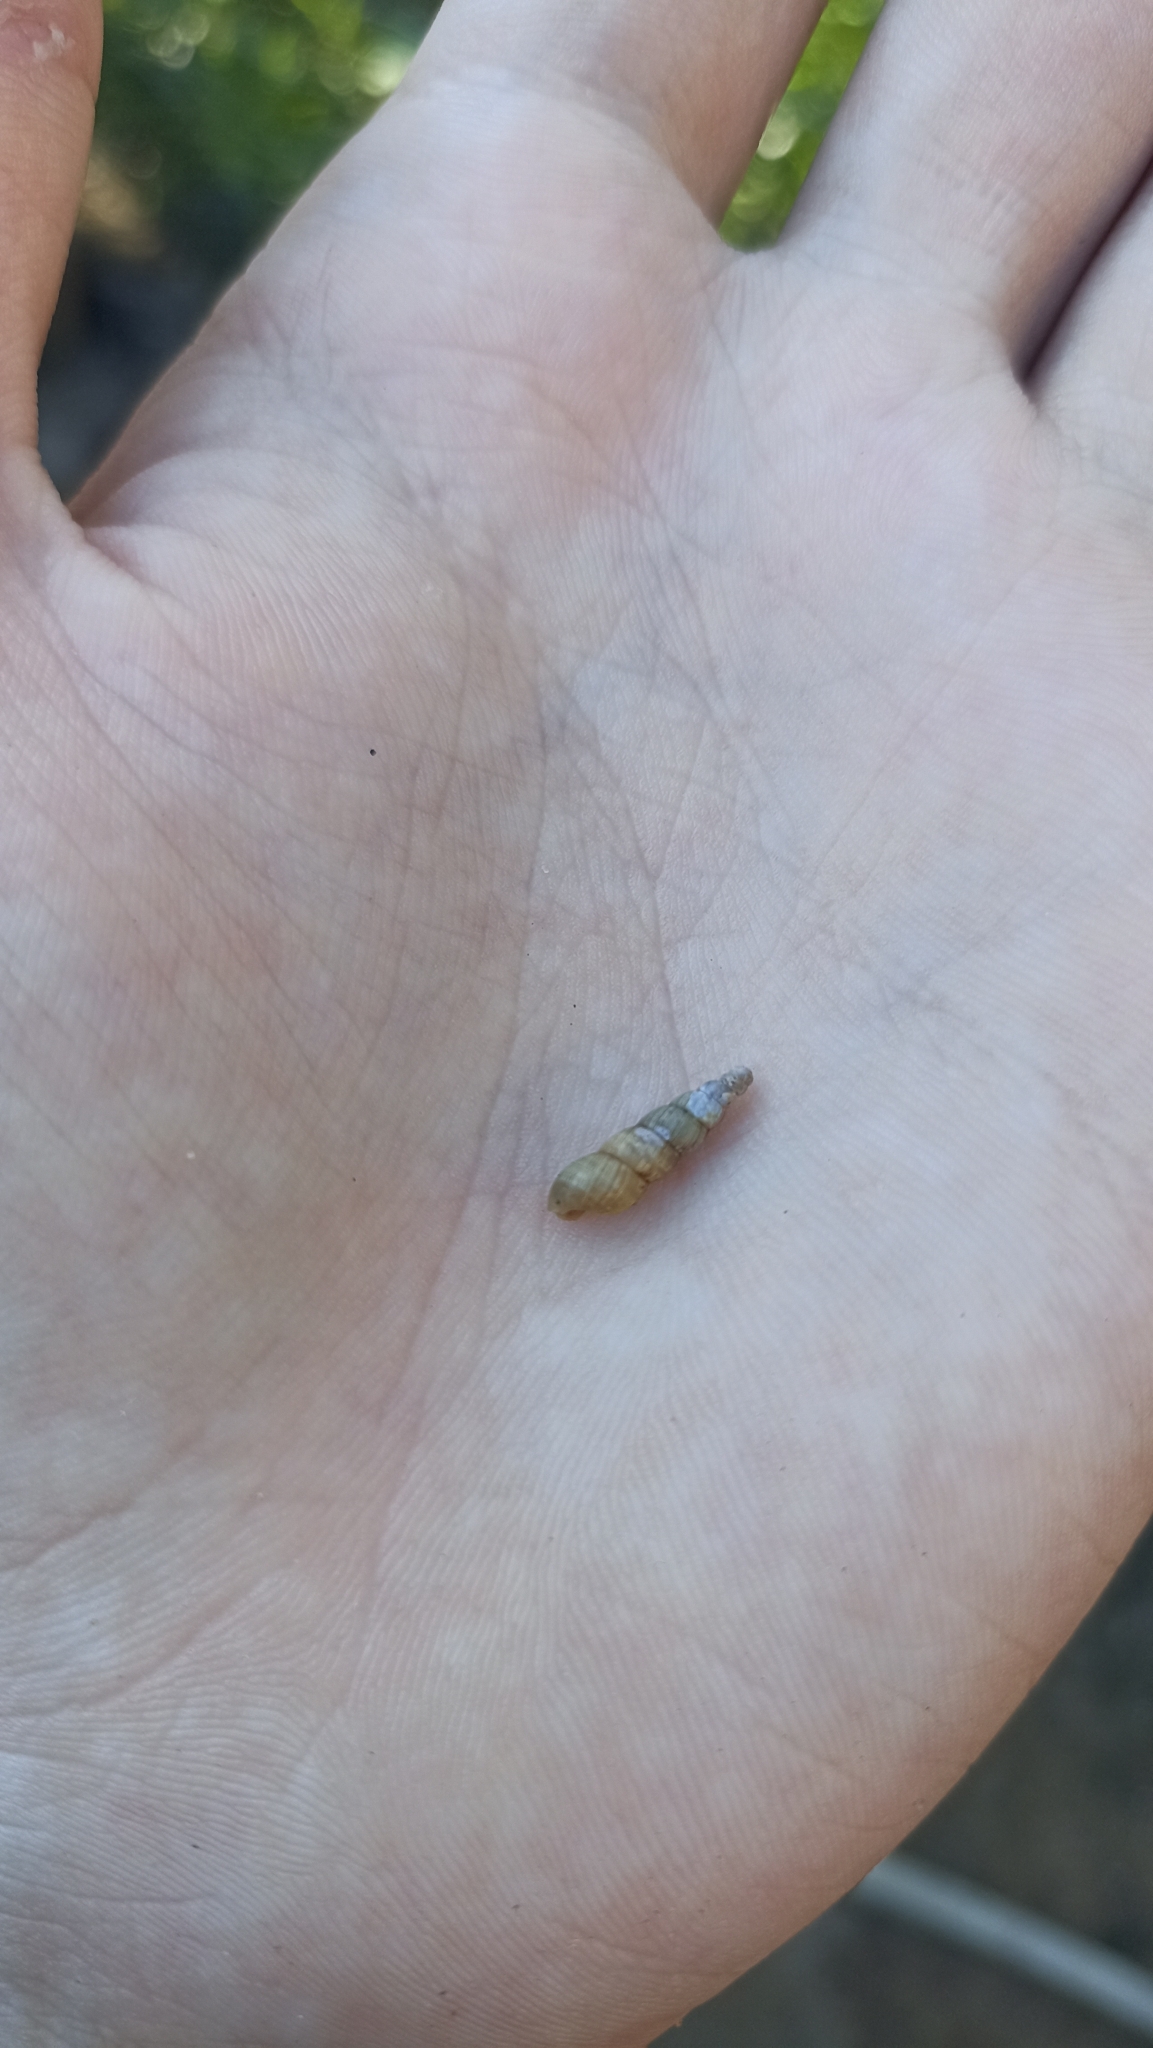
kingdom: Animalia
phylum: Mollusca
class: Gastropoda
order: Stylommatophora
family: Achatinidae
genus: Subulina
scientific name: Subulina octona
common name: Miniature awlsnail
